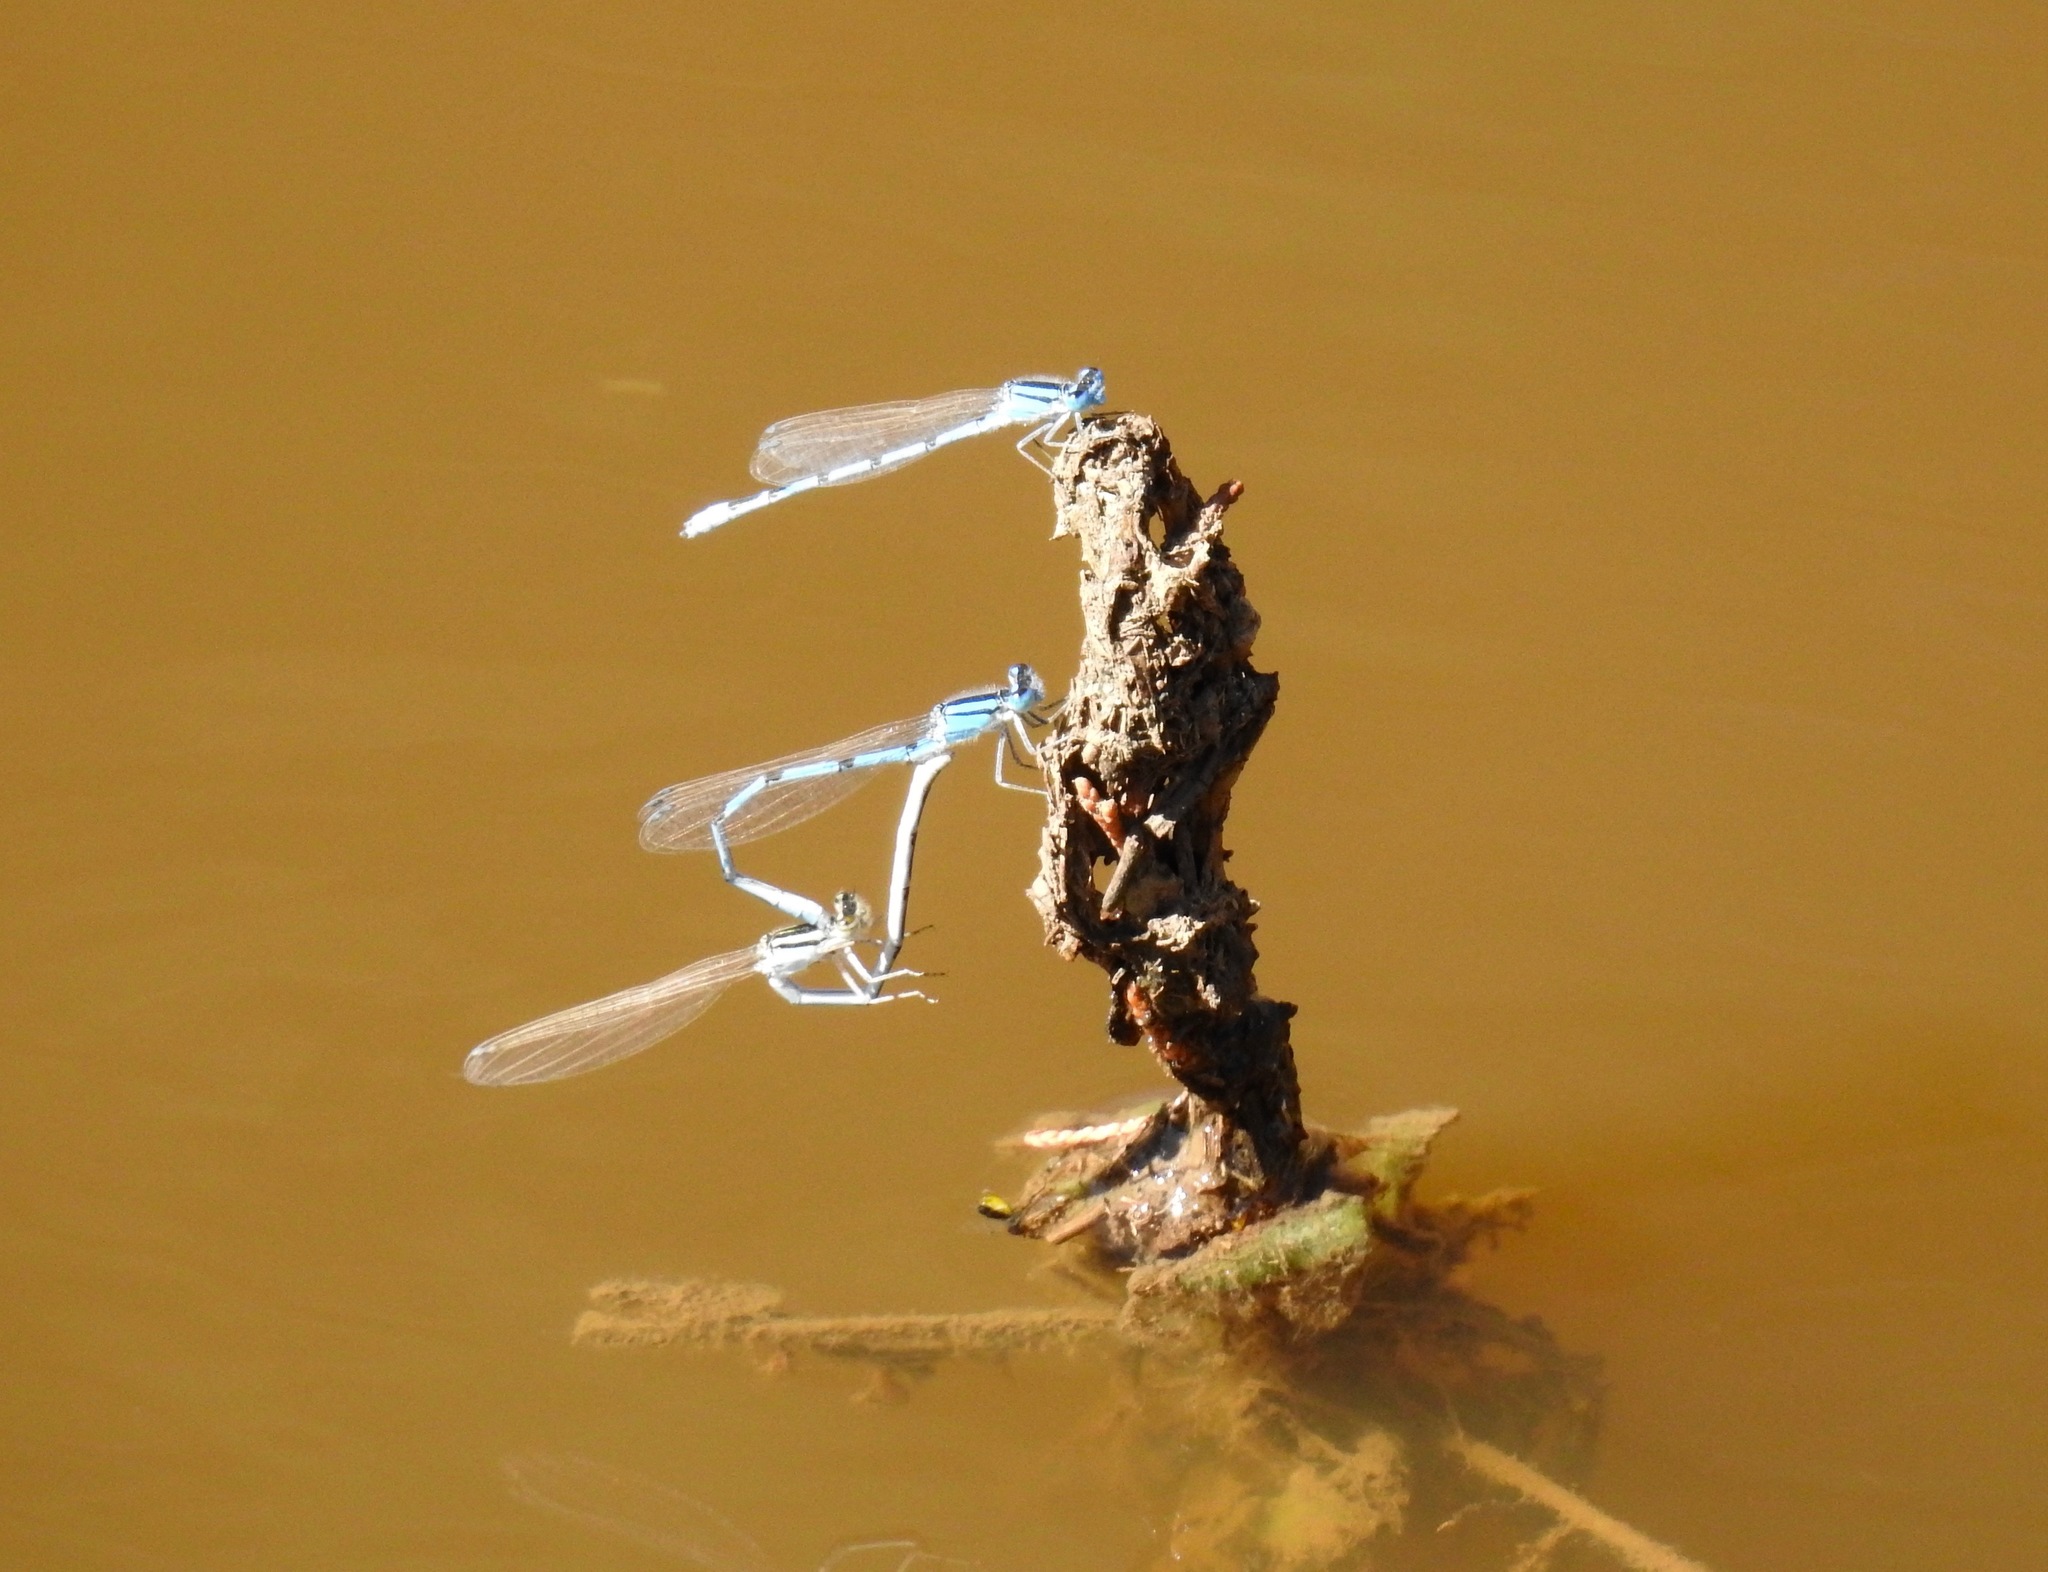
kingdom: Animalia
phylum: Arthropoda
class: Insecta
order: Odonata
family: Coenagrionidae
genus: Enallagma
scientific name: Enallagma civile
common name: Damselfly
